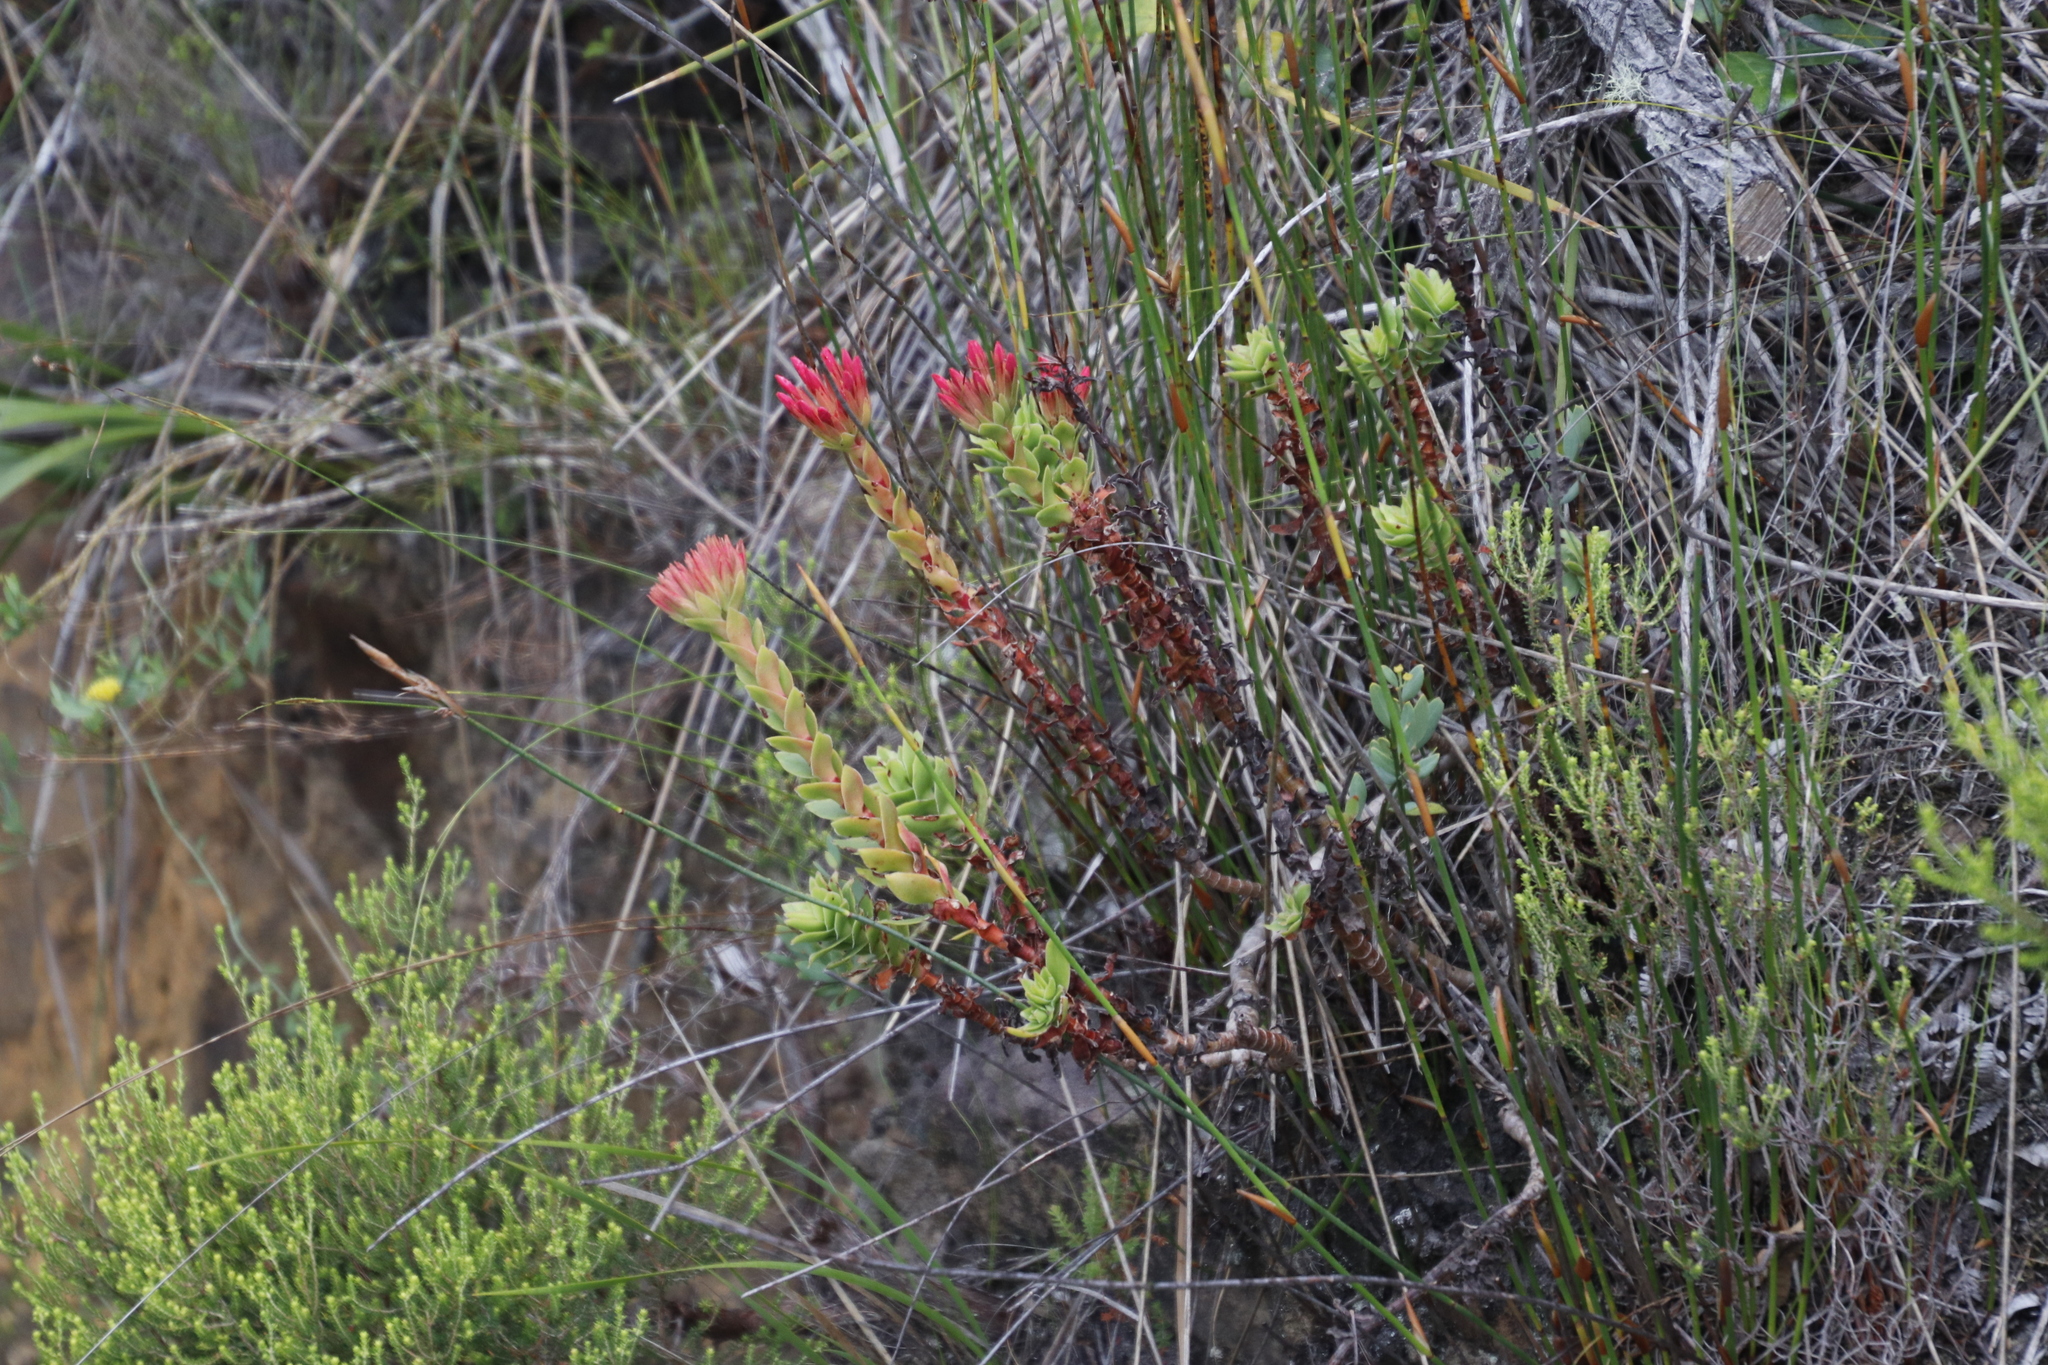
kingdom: Plantae
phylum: Tracheophyta
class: Magnoliopsida
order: Saxifragales
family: Crassulaceae
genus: Crassula
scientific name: Crassula coccinea
